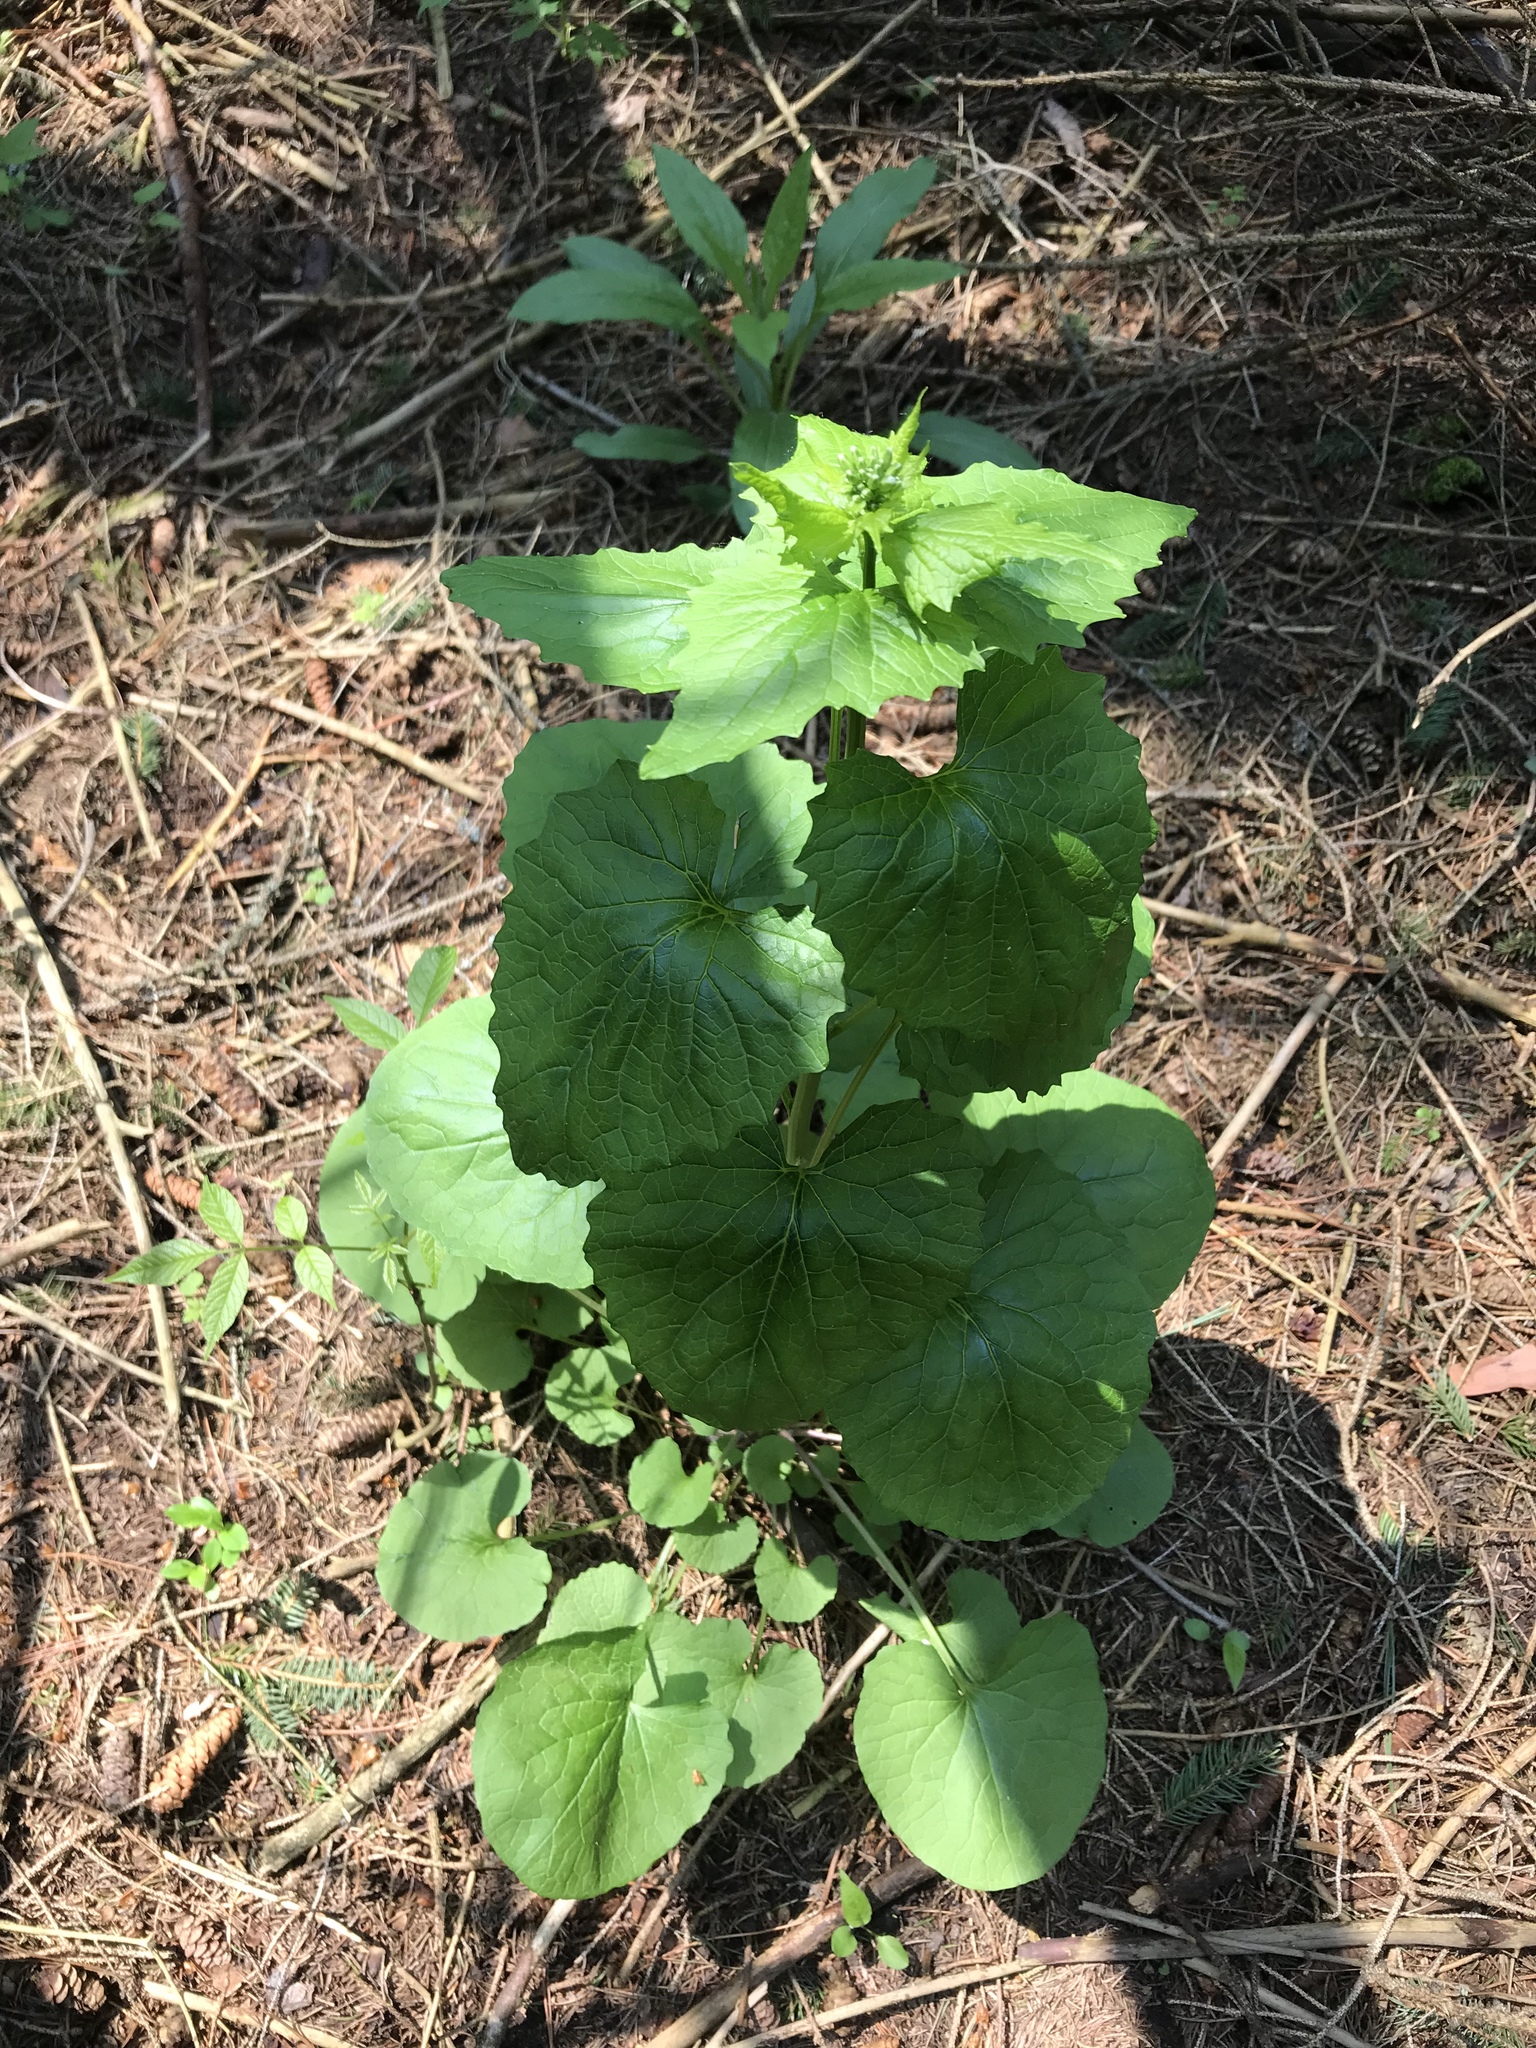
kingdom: Plantae
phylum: Tracheophyta
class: Magnoliopsida
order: Brassicales
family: Brassicaceae
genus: Alliaria
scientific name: Alliaria petiolata
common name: Garlic mustard
